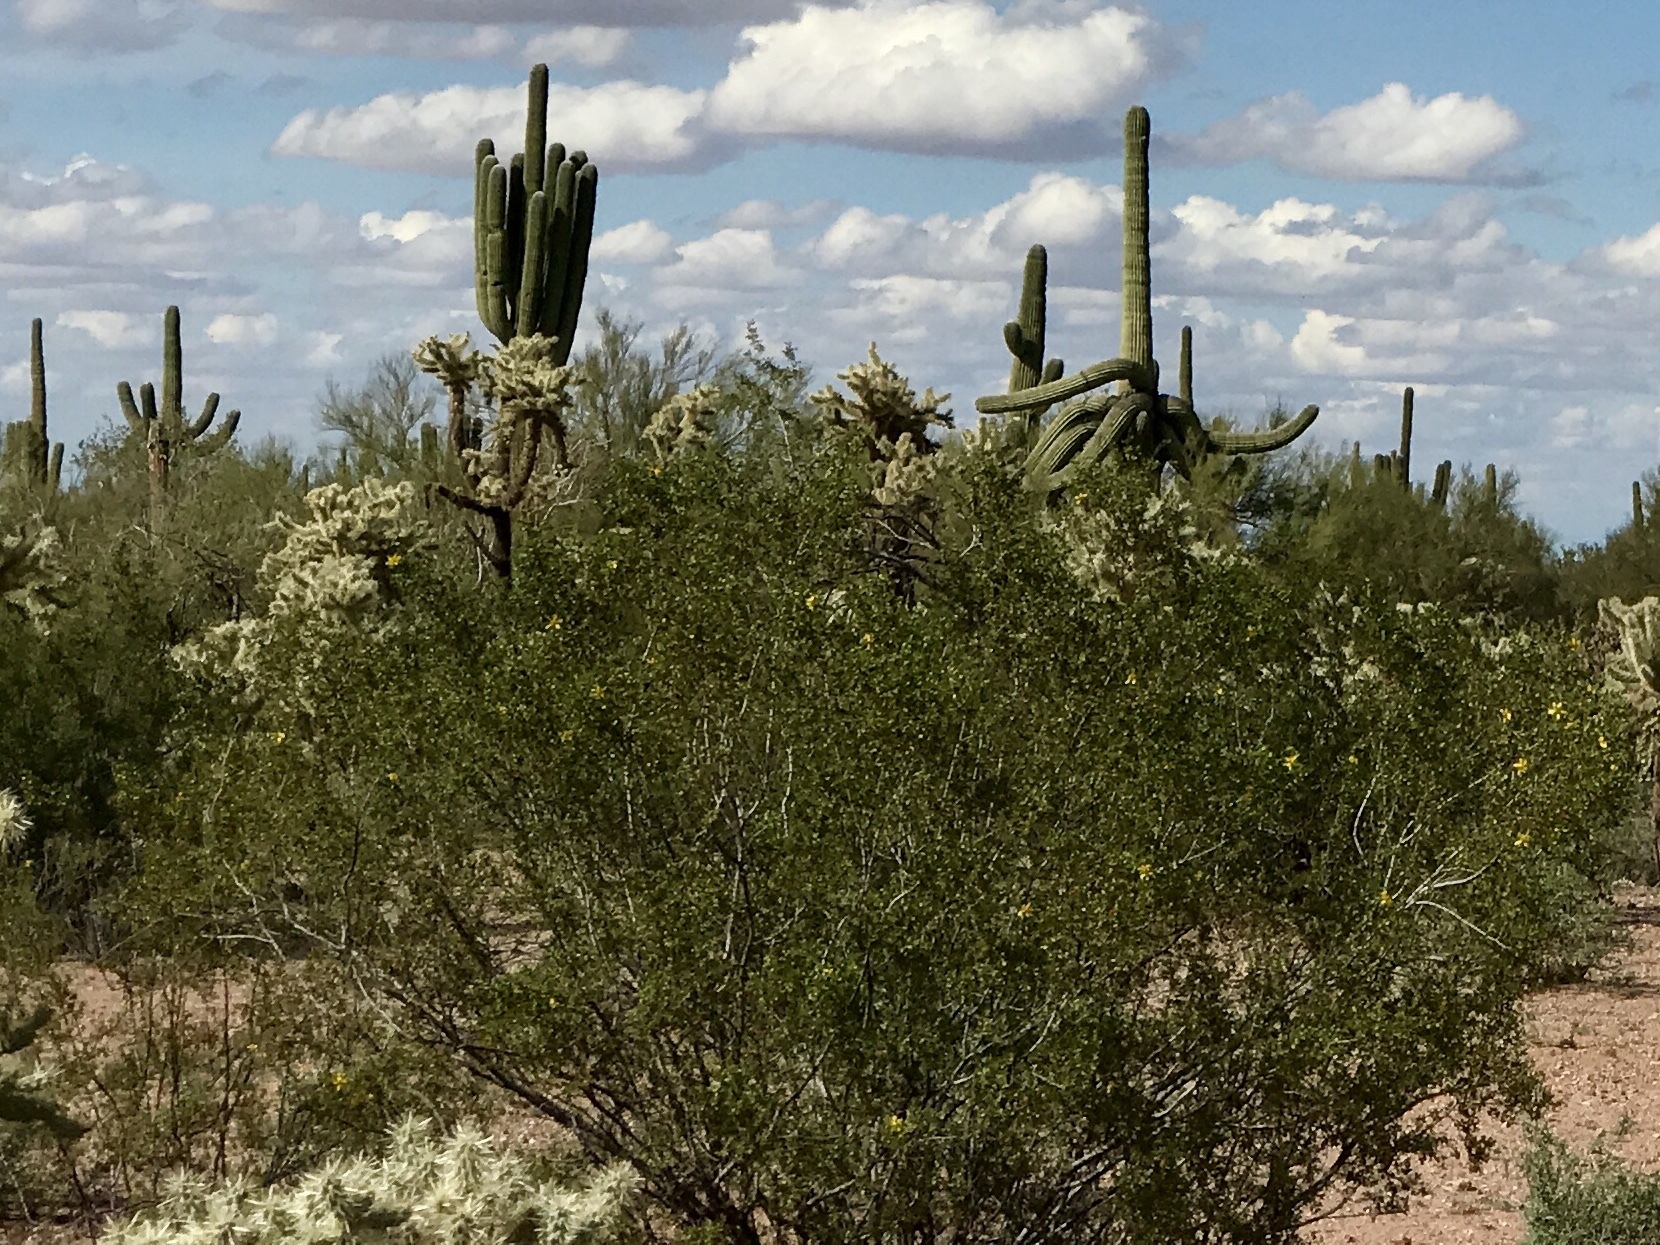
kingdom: Plantae
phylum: Tracheophyta
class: Magnoliopsida
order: Zygophyllales
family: Zygophyllaceae
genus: Larrea
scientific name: Larrea tridentata
